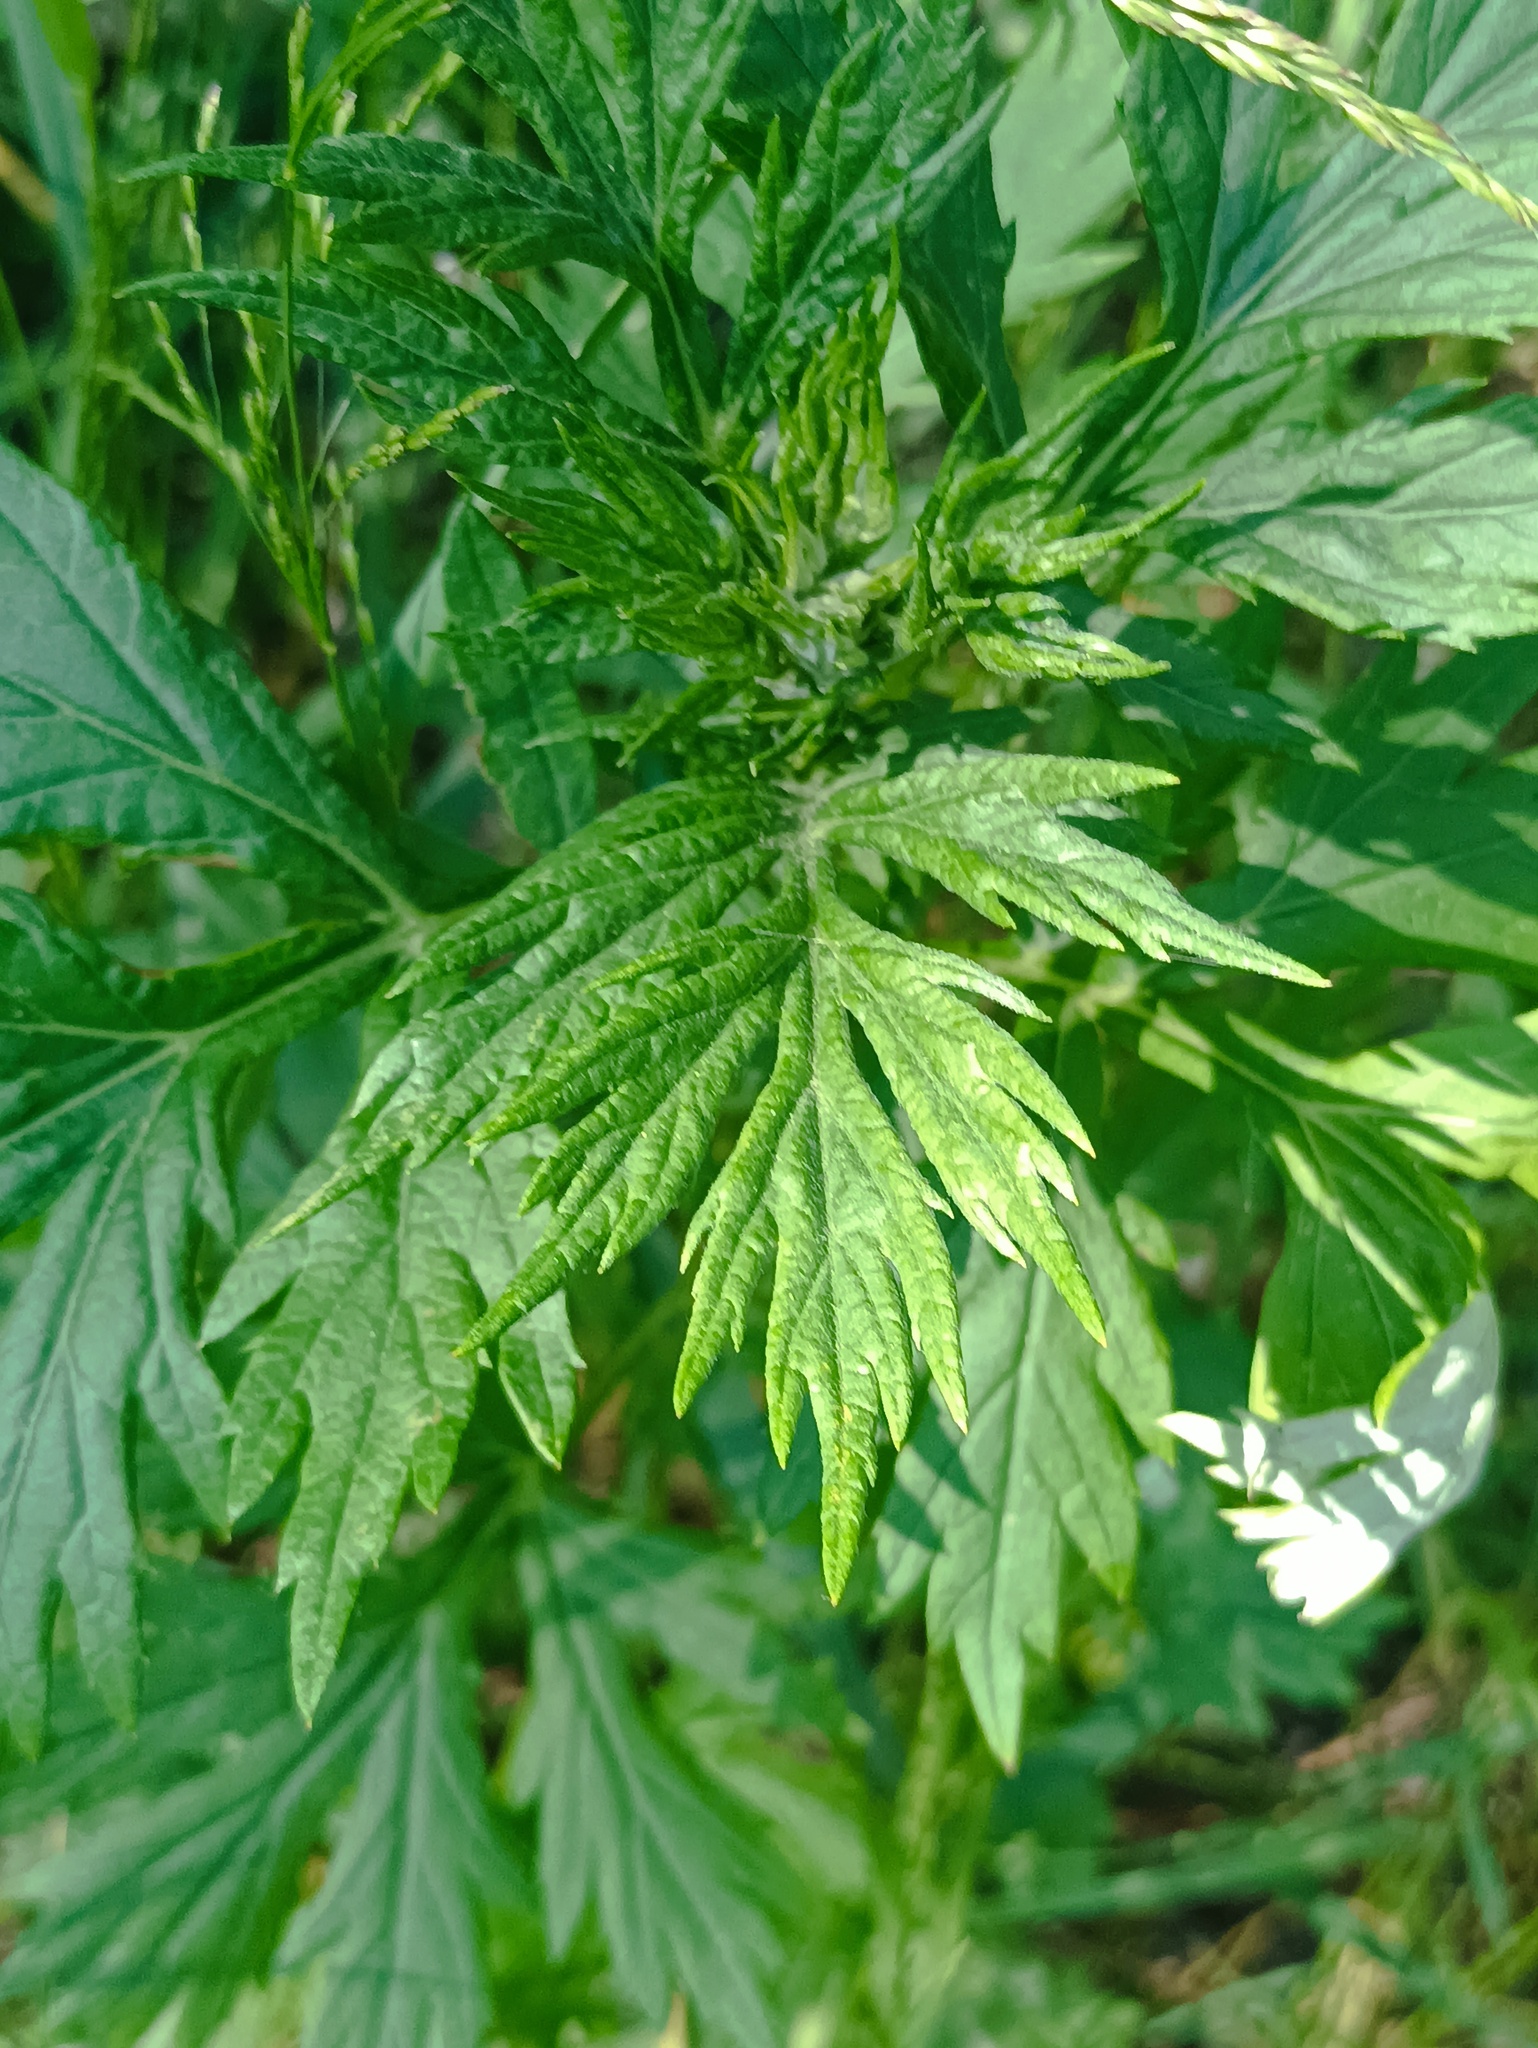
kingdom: Plantae
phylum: Tracheophyta
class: Magnoliopsida
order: Asterales
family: Asteraceae
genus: Artemisia
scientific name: Artemisia vulgaris
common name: Mugwort
